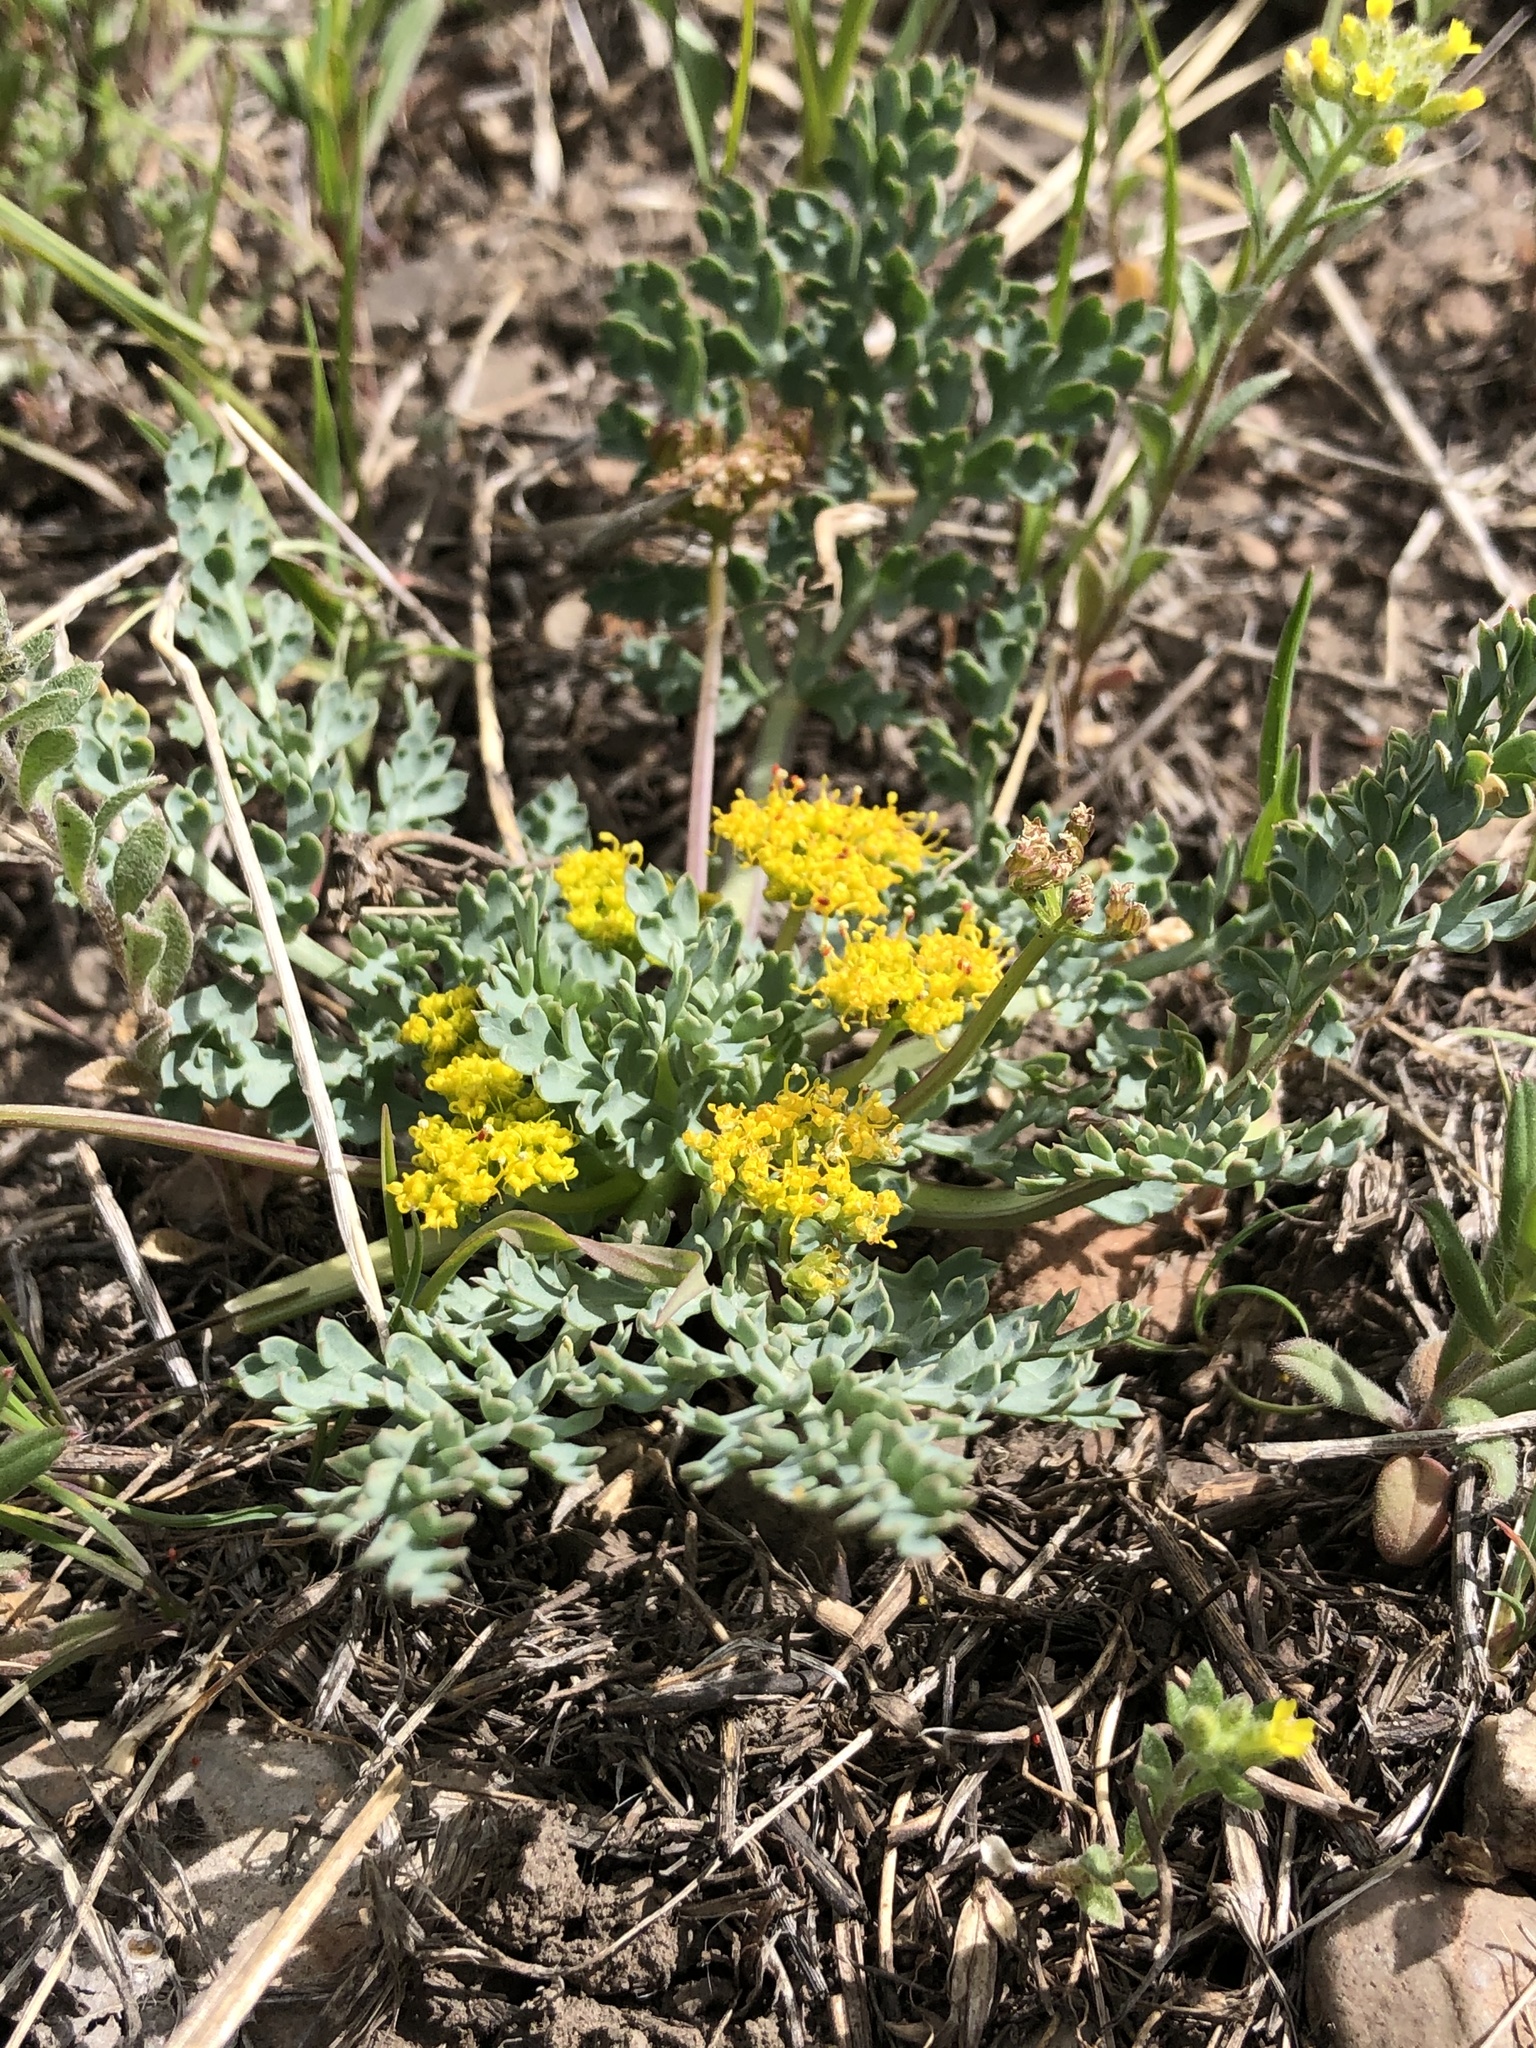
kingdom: Plantae
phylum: Tracheophyta
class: Magnoliopsida
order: Apiales
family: Apiaceae
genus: Aulospermum
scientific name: Aulospermum longipes
